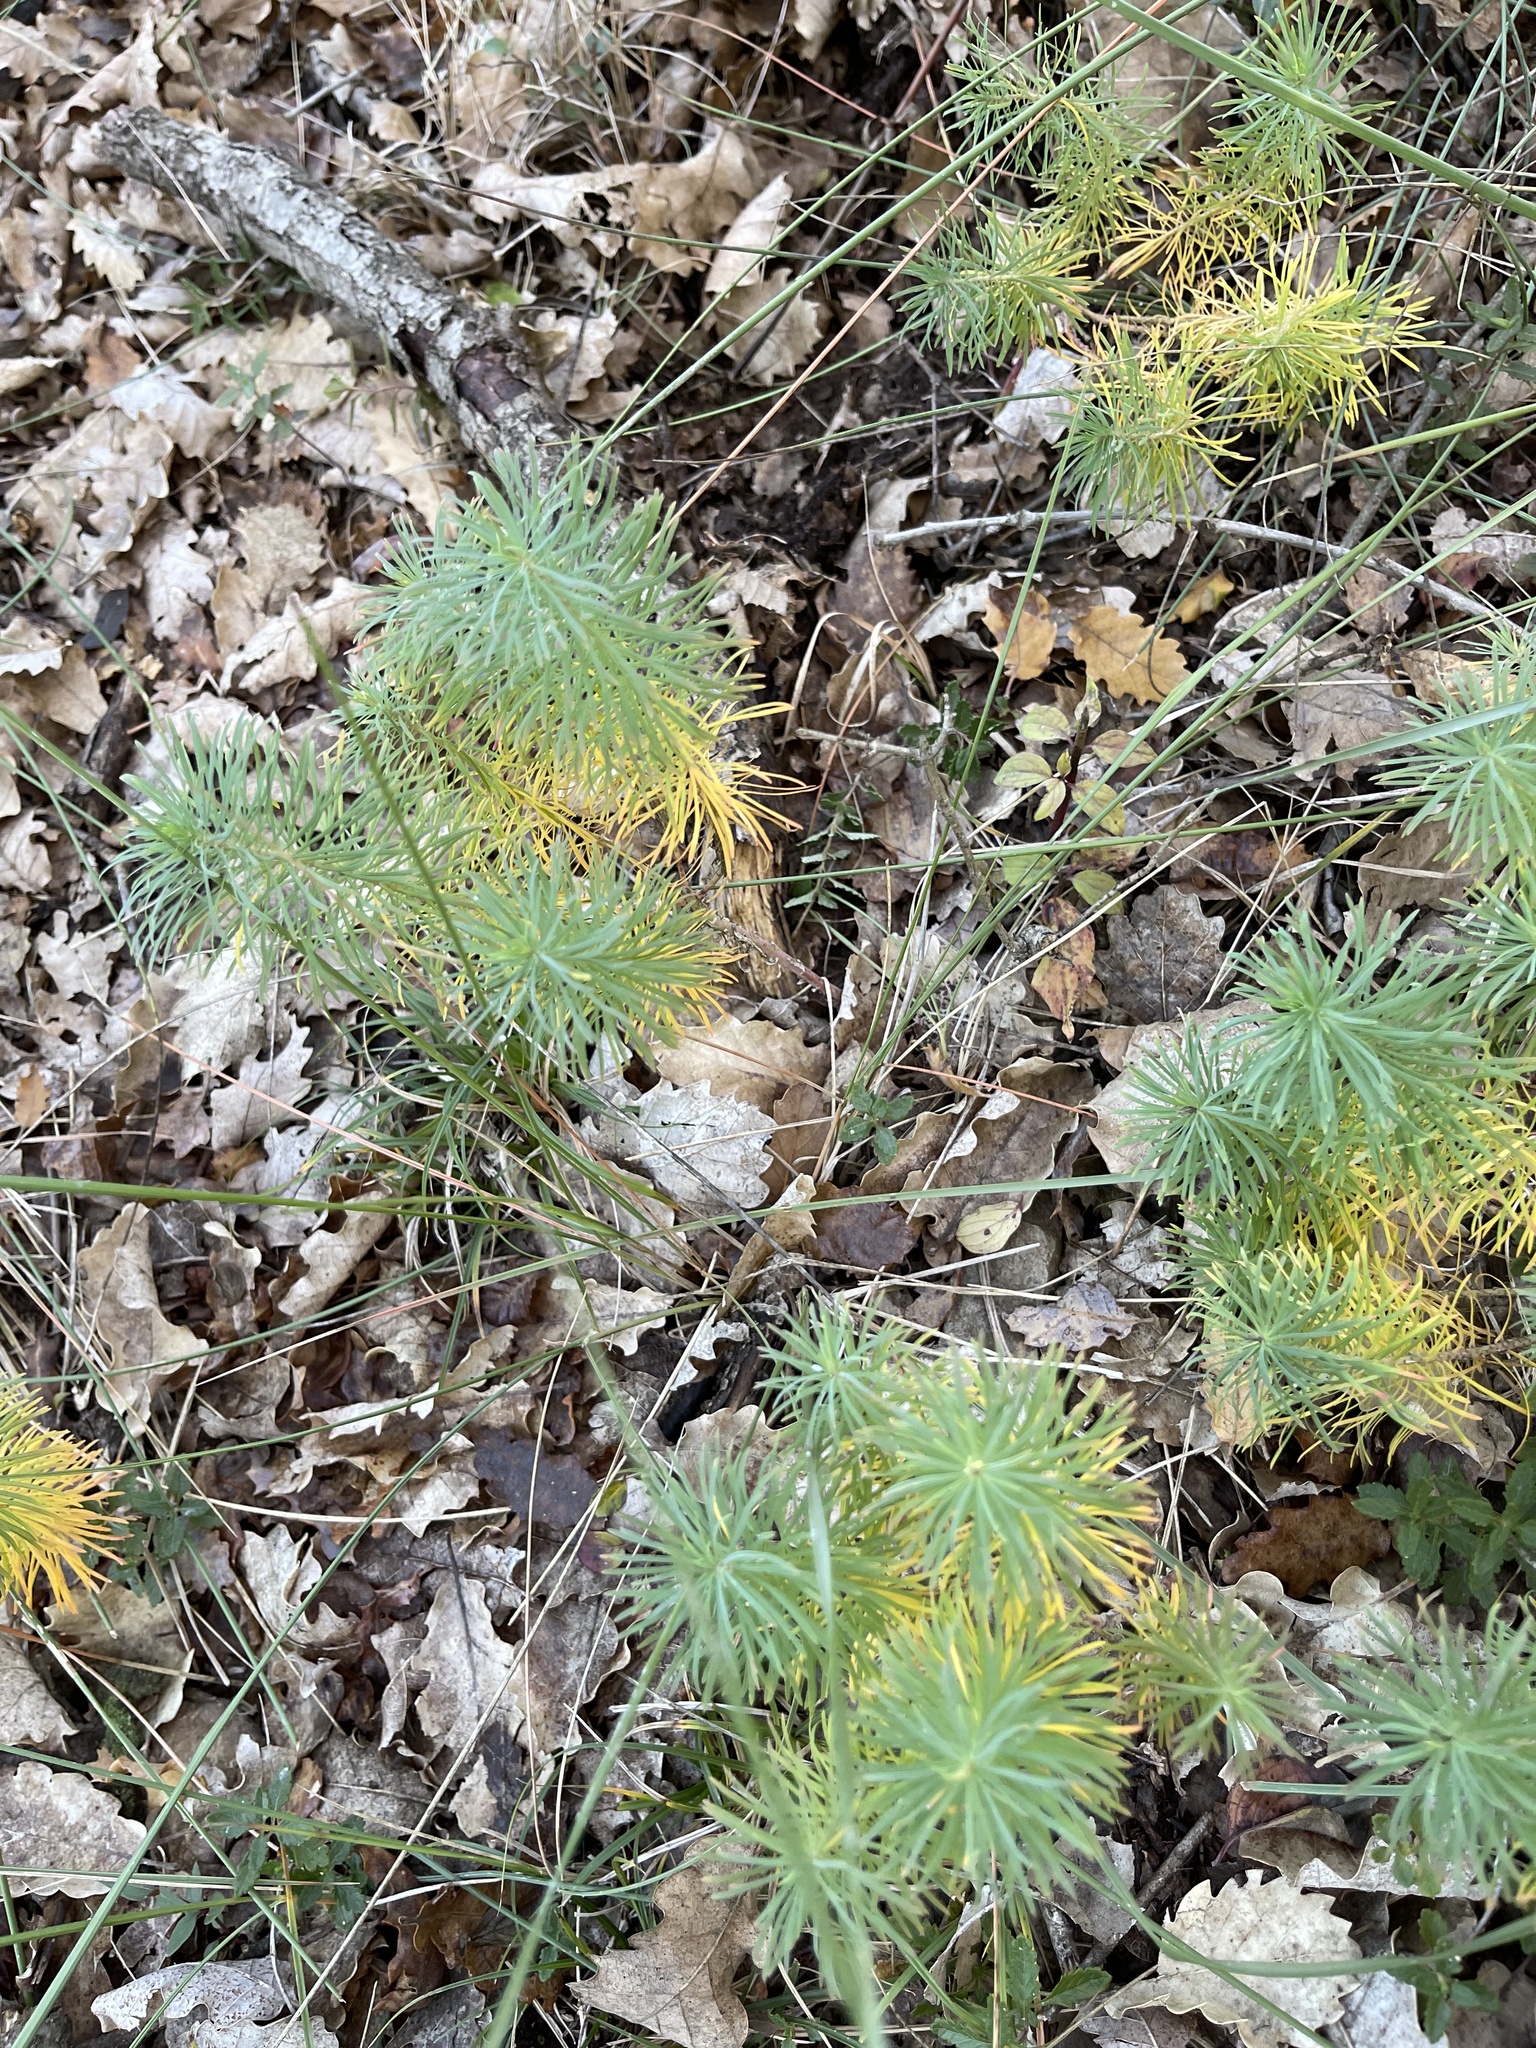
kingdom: Plantae
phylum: Tracheophyta
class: Magnoliopsida
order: Malpighiales
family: Euphorbiaceae
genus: Euphorbia
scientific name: Euphorbia cyparissias
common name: Cypress spurge
